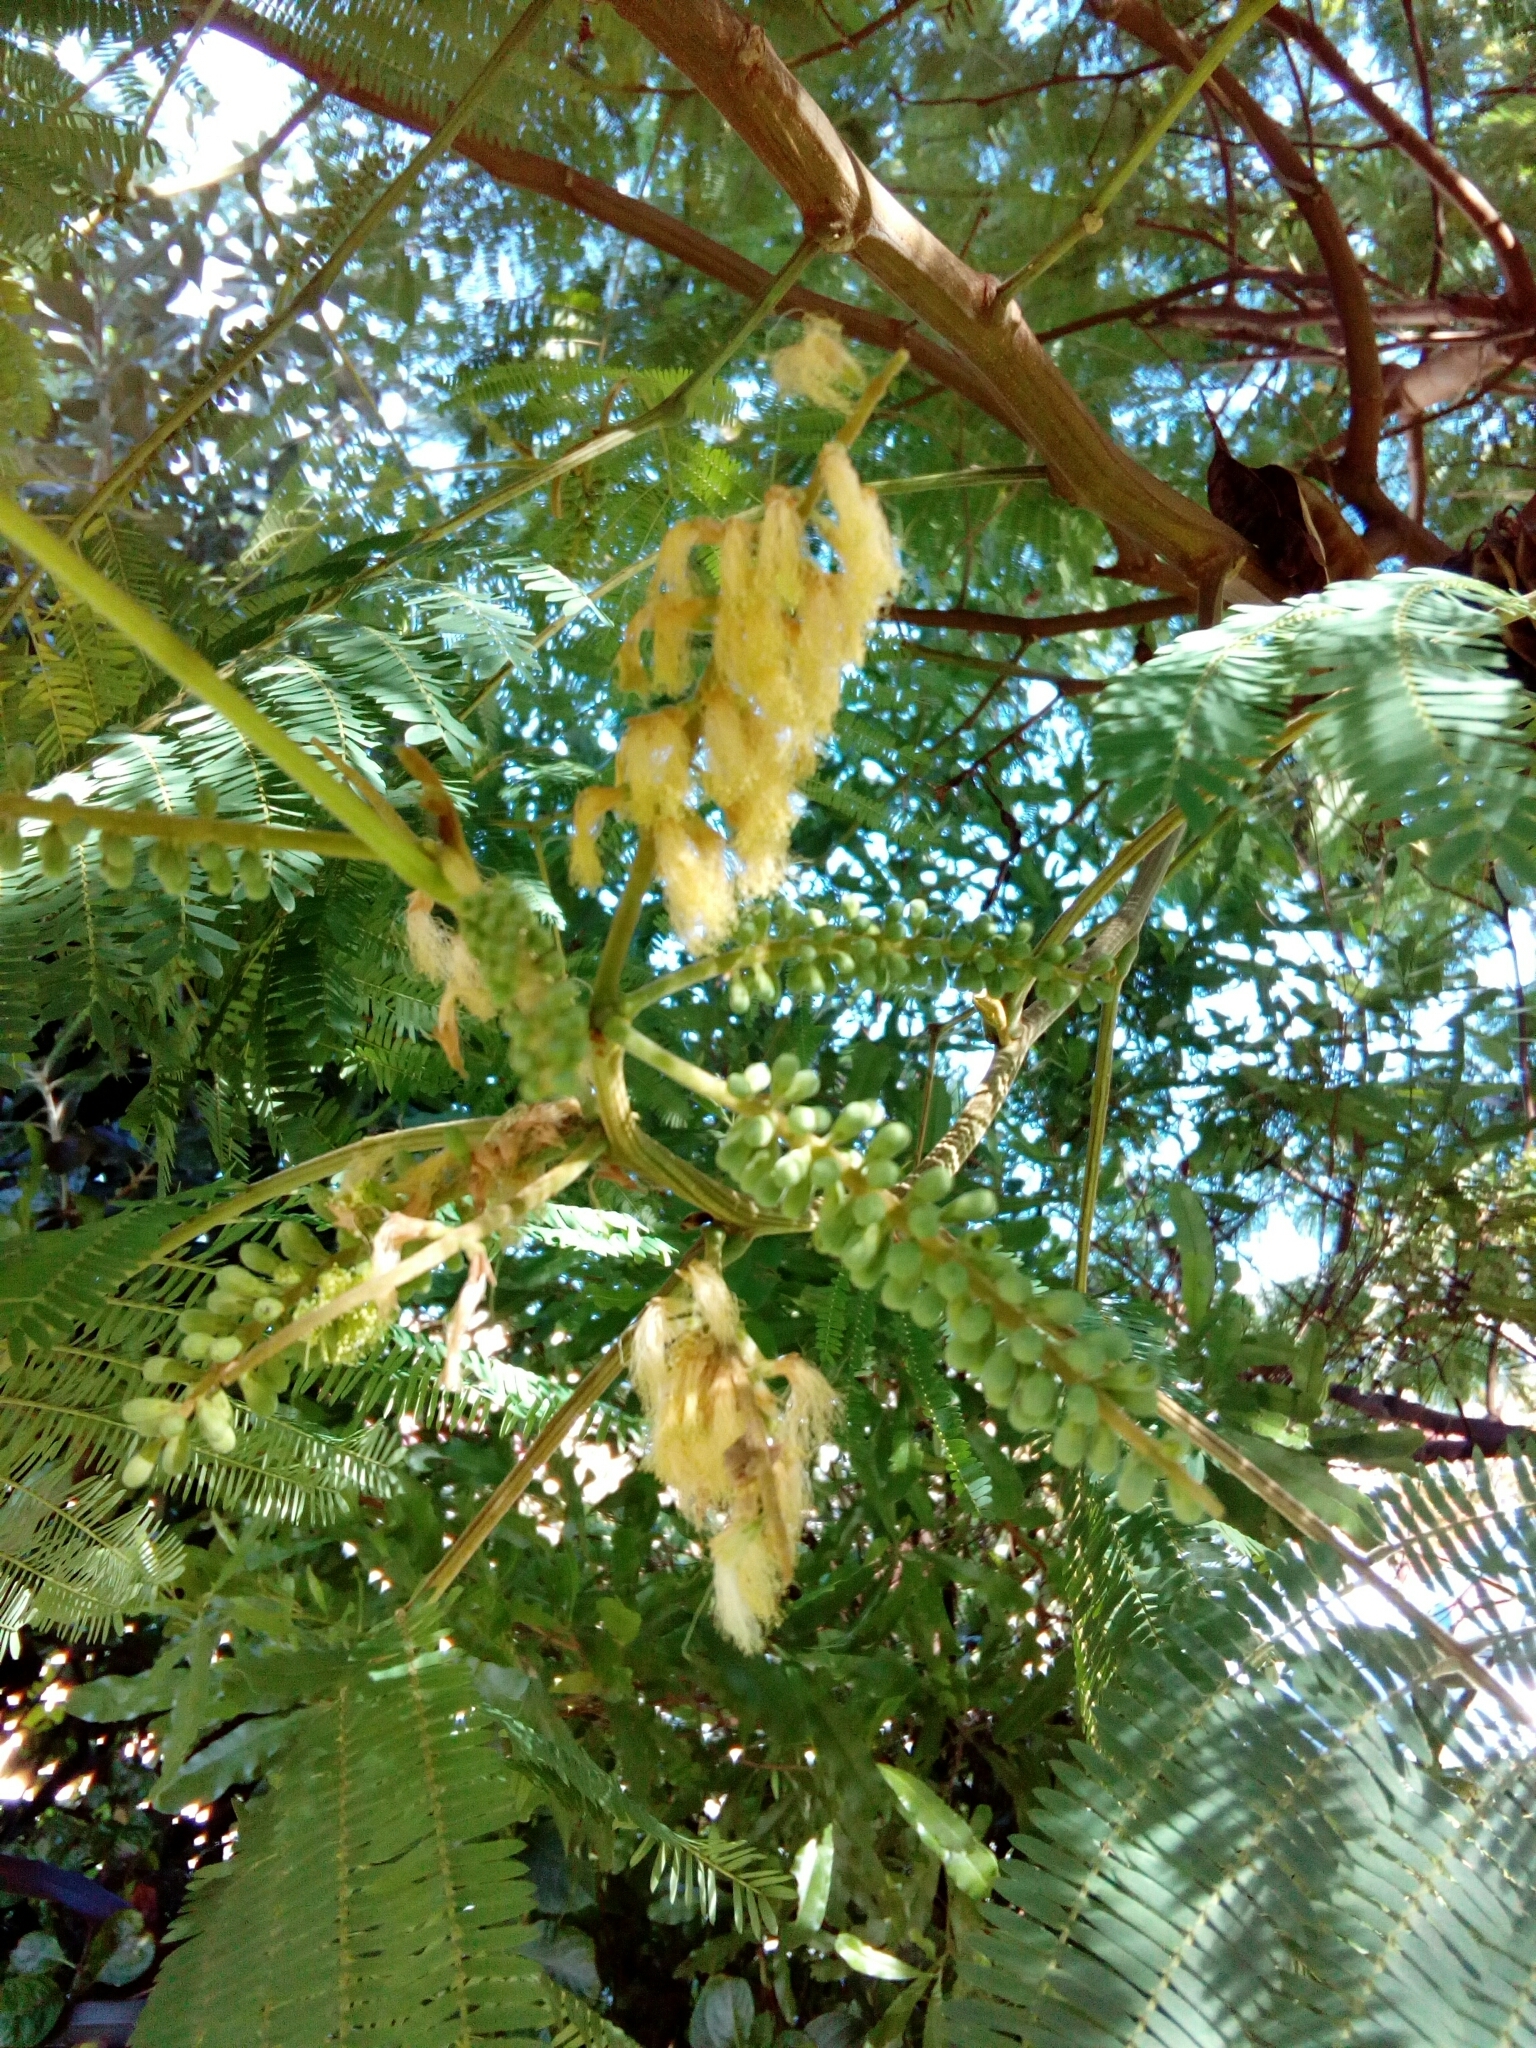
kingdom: Plantae
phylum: Tracheophyta
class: Magnoliopsida
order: Fabales
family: Fabaceae
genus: Paraserianthes
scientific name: Paraserianthes lophantha
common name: Plume albizia
